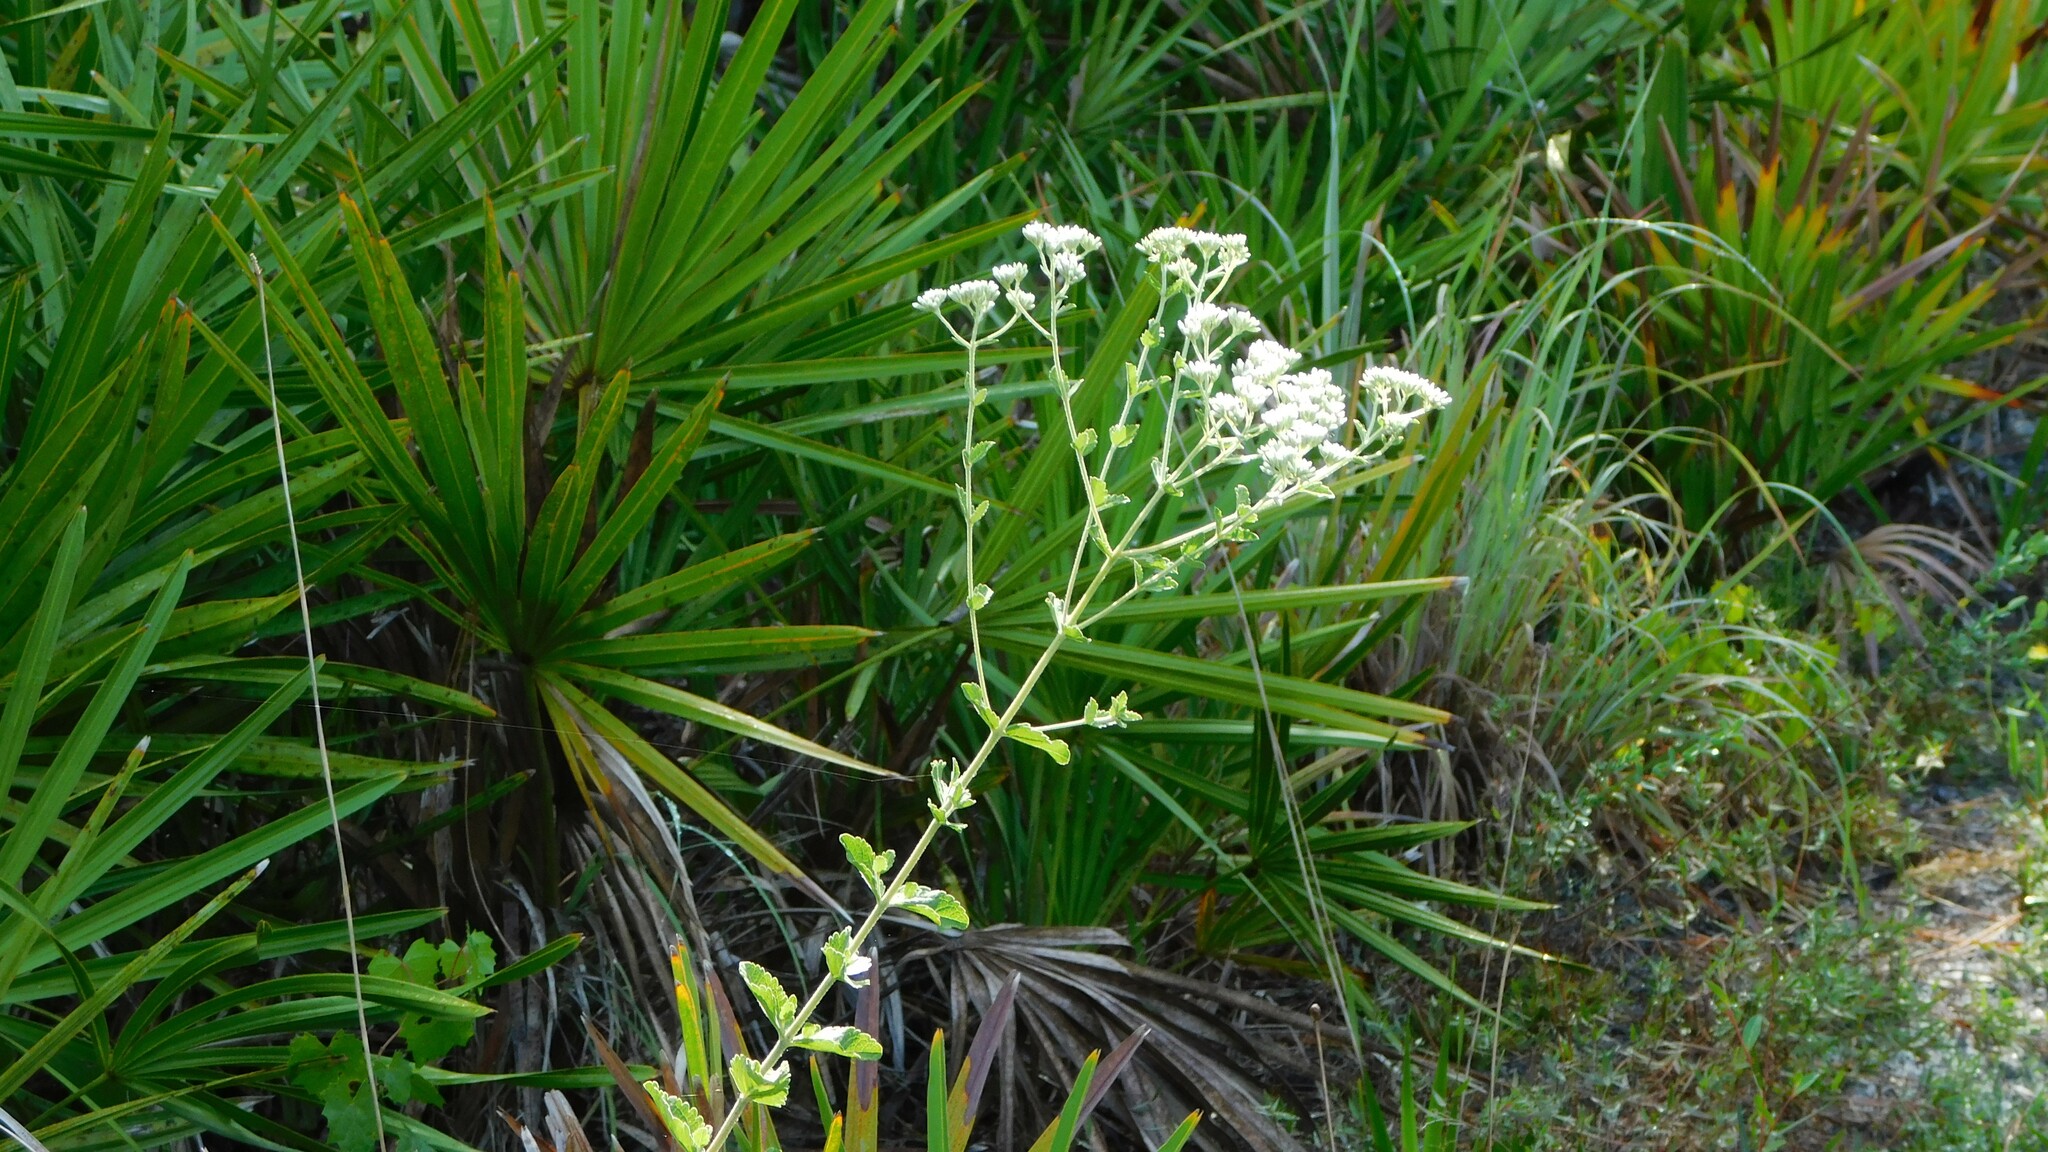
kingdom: Plantae
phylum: Tracheophyta
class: Magnoliopsida
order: Asterales
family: Asteraceae
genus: Eupatorium
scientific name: Eupatorium rotundifolium
